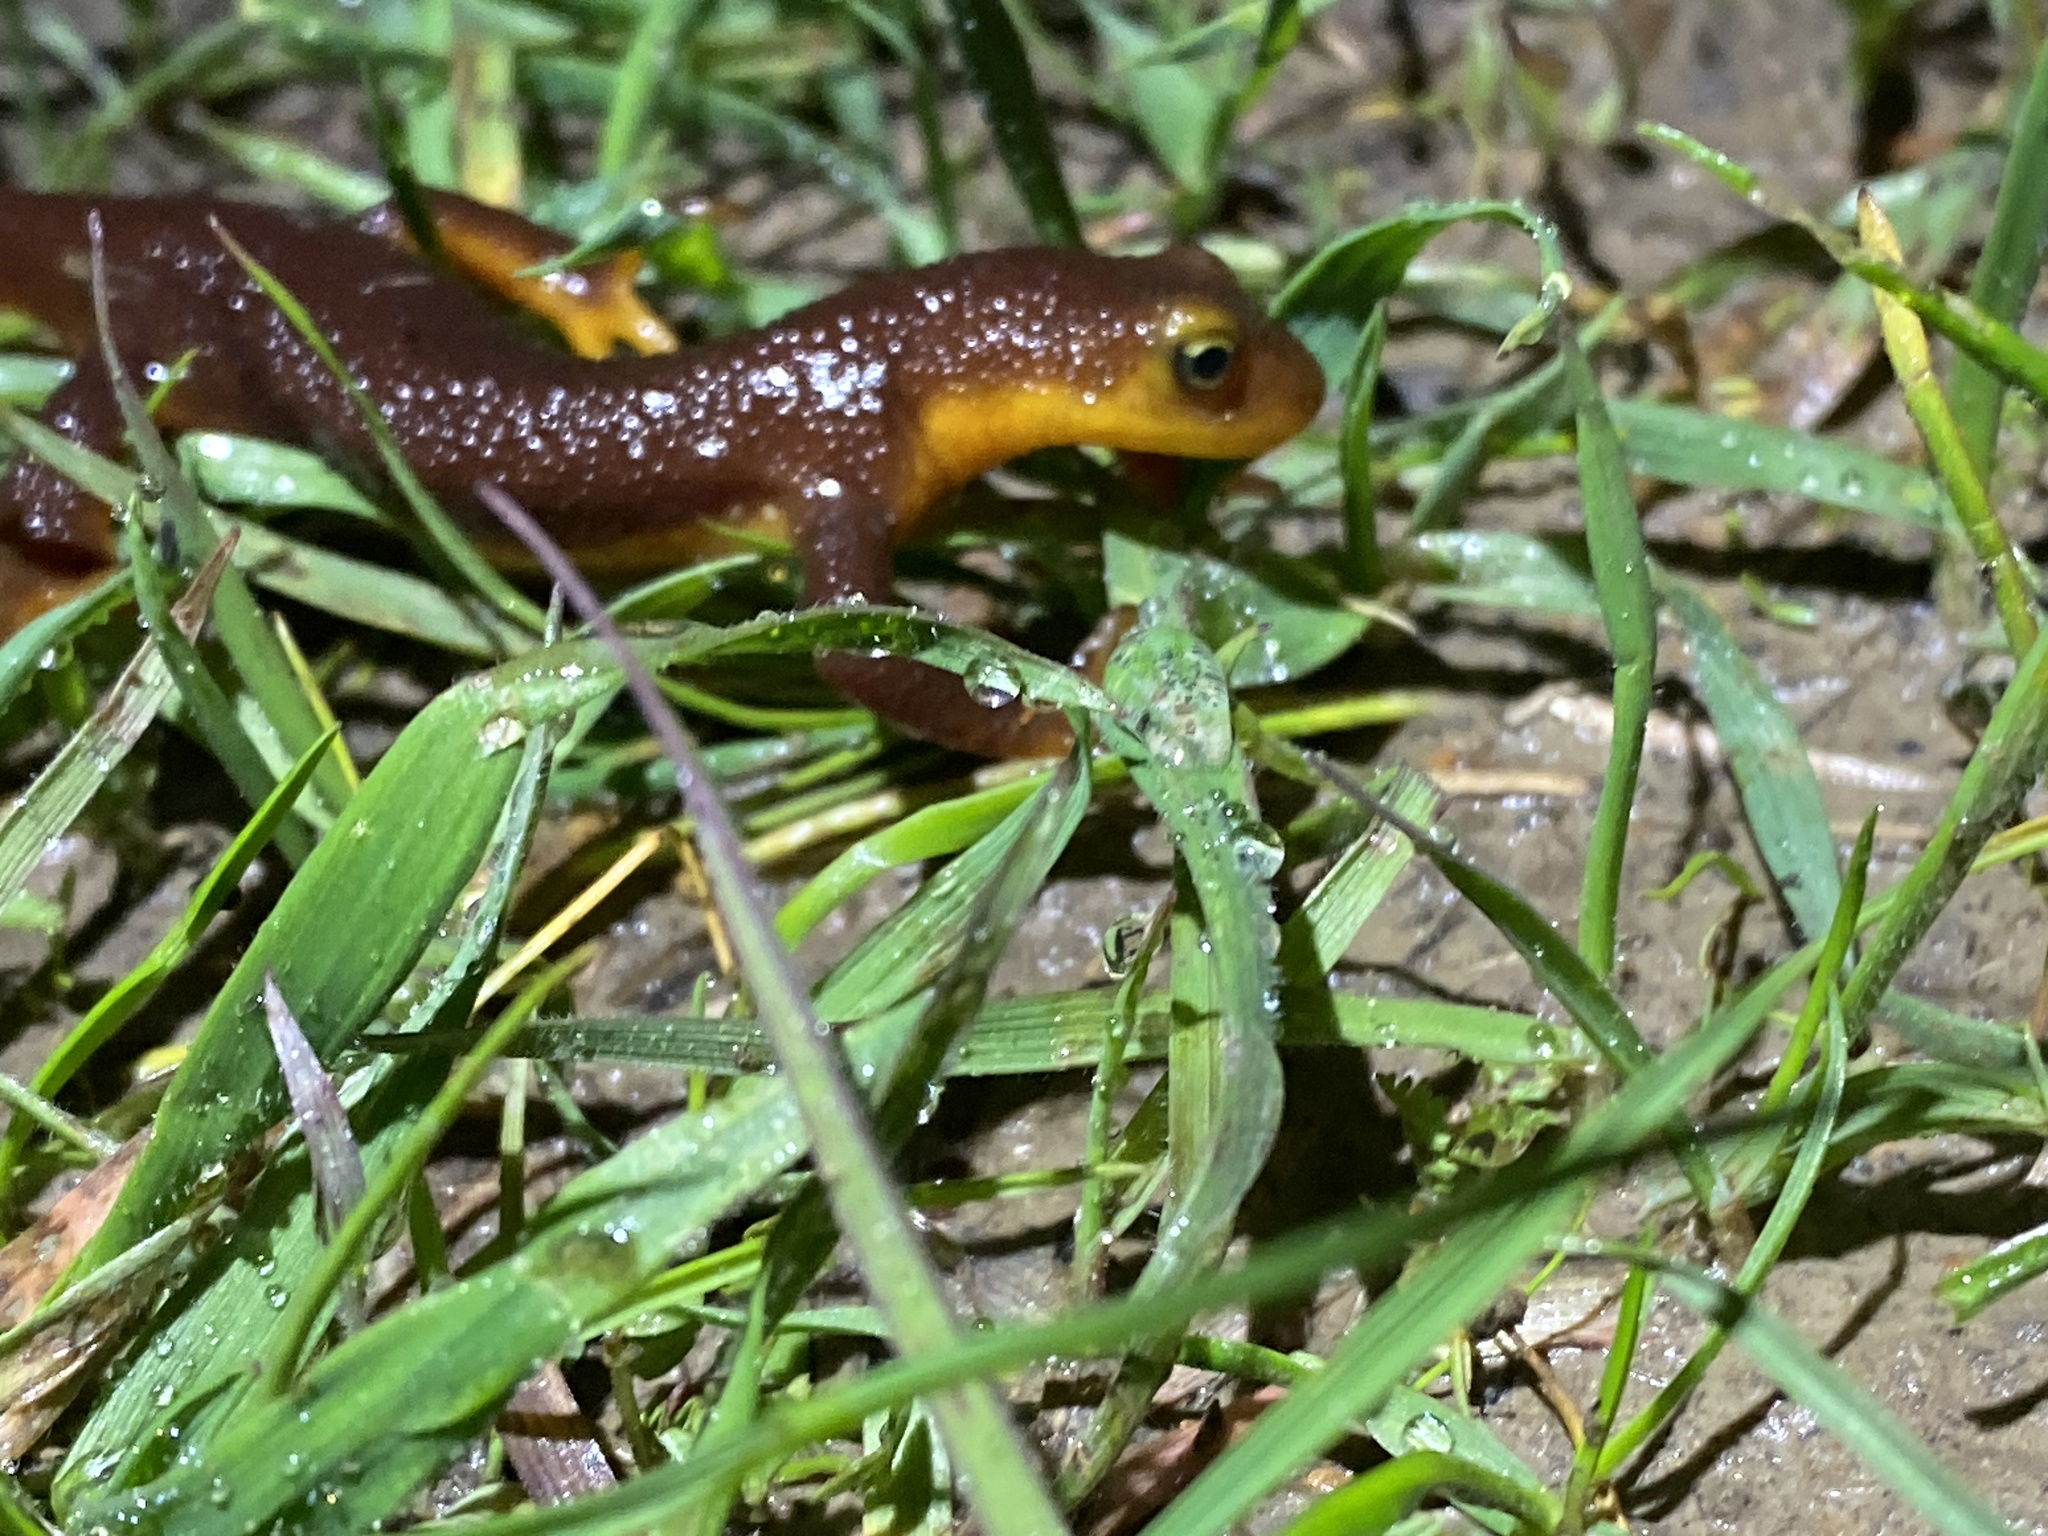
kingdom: Animalia
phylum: Chordata
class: Amphibia
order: Caudata
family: Salamandridae
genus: Taricha
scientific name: Taricha torosa
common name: California newt
